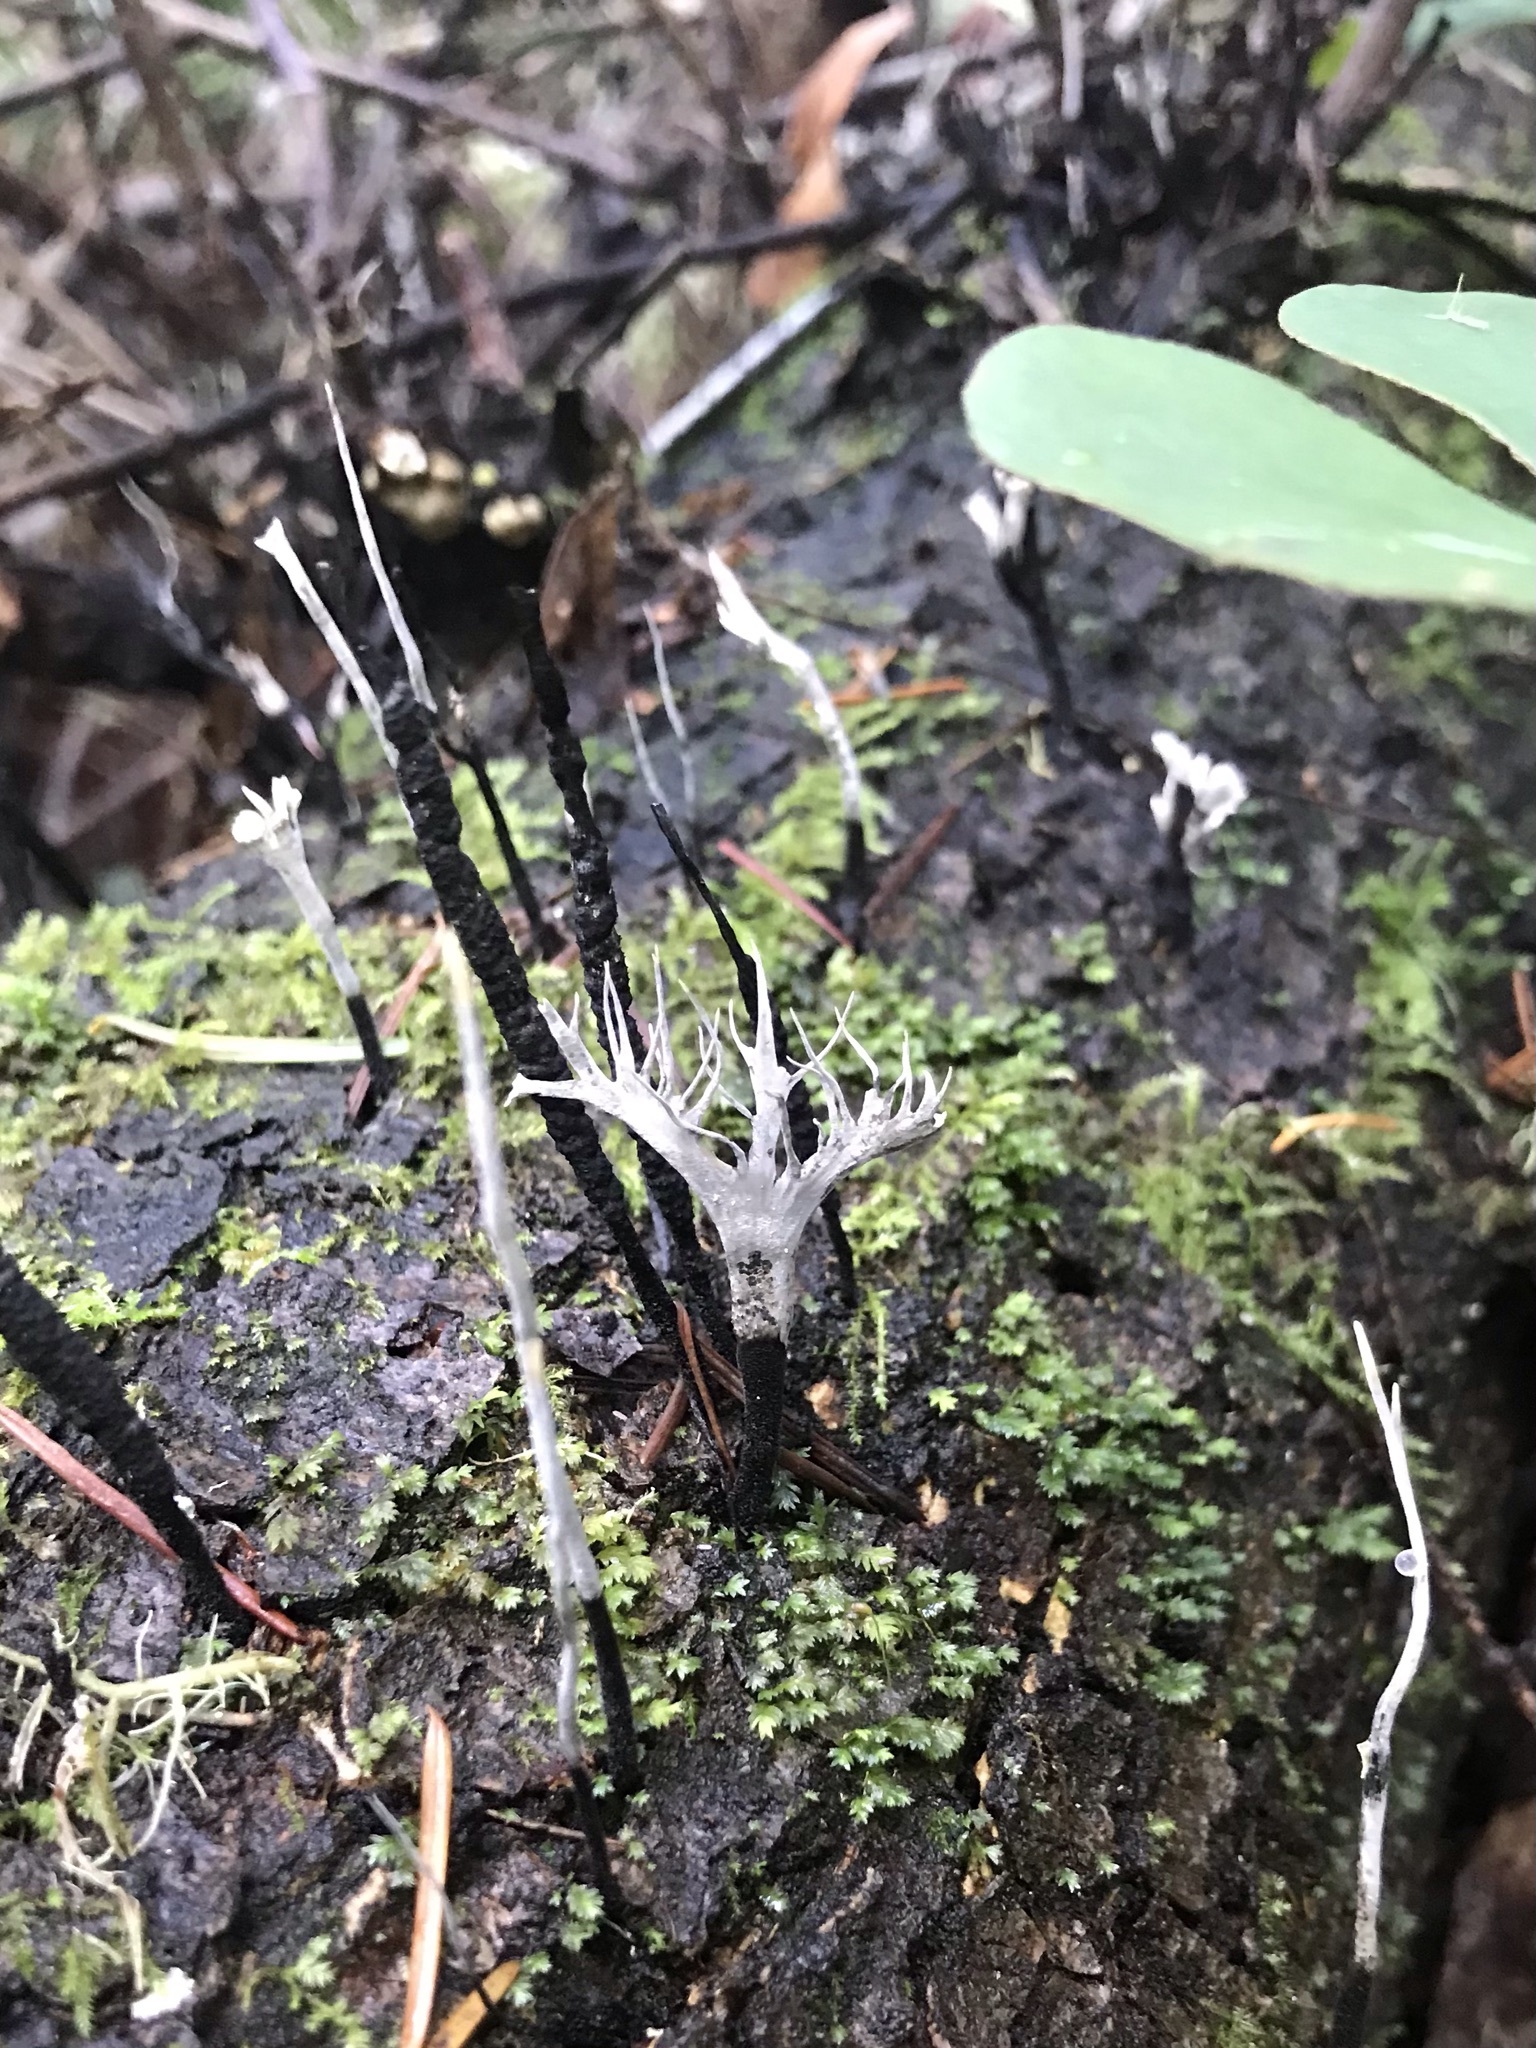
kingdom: Fungi
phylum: Ascomycota
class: Sordariomycetes
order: Xylariales
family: Xylariaceae
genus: Xylaria
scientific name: Xylaria hypoxylon
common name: Candle-snuff fungus
